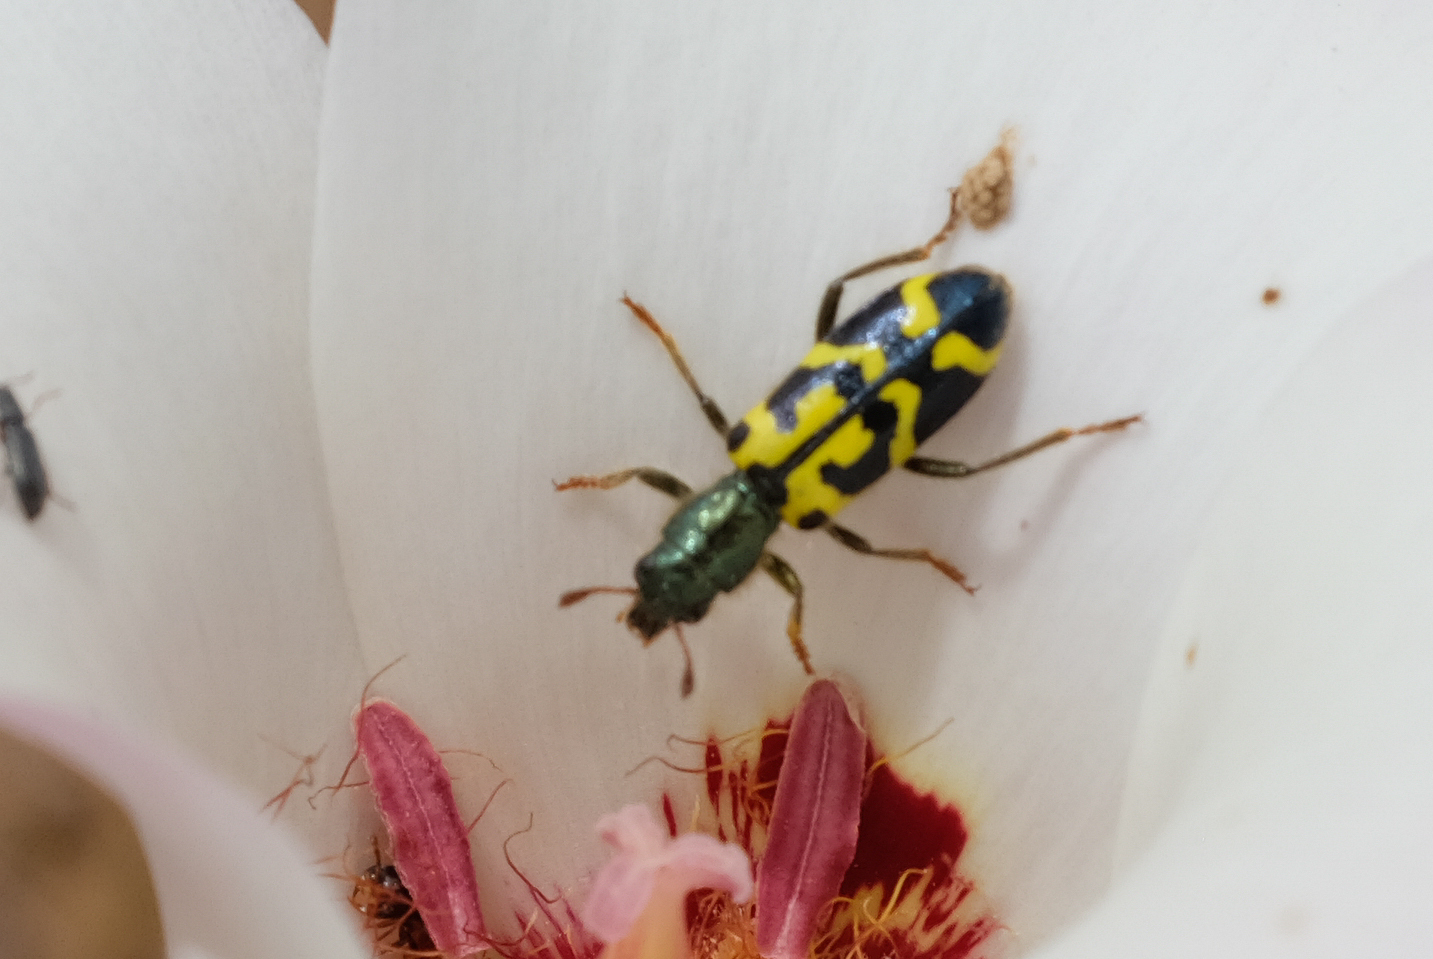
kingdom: Animalia
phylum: Arthropoda
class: Insecta
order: Coleoptera
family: Cleridae
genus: Trichodes
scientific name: Trichodes ornatus
